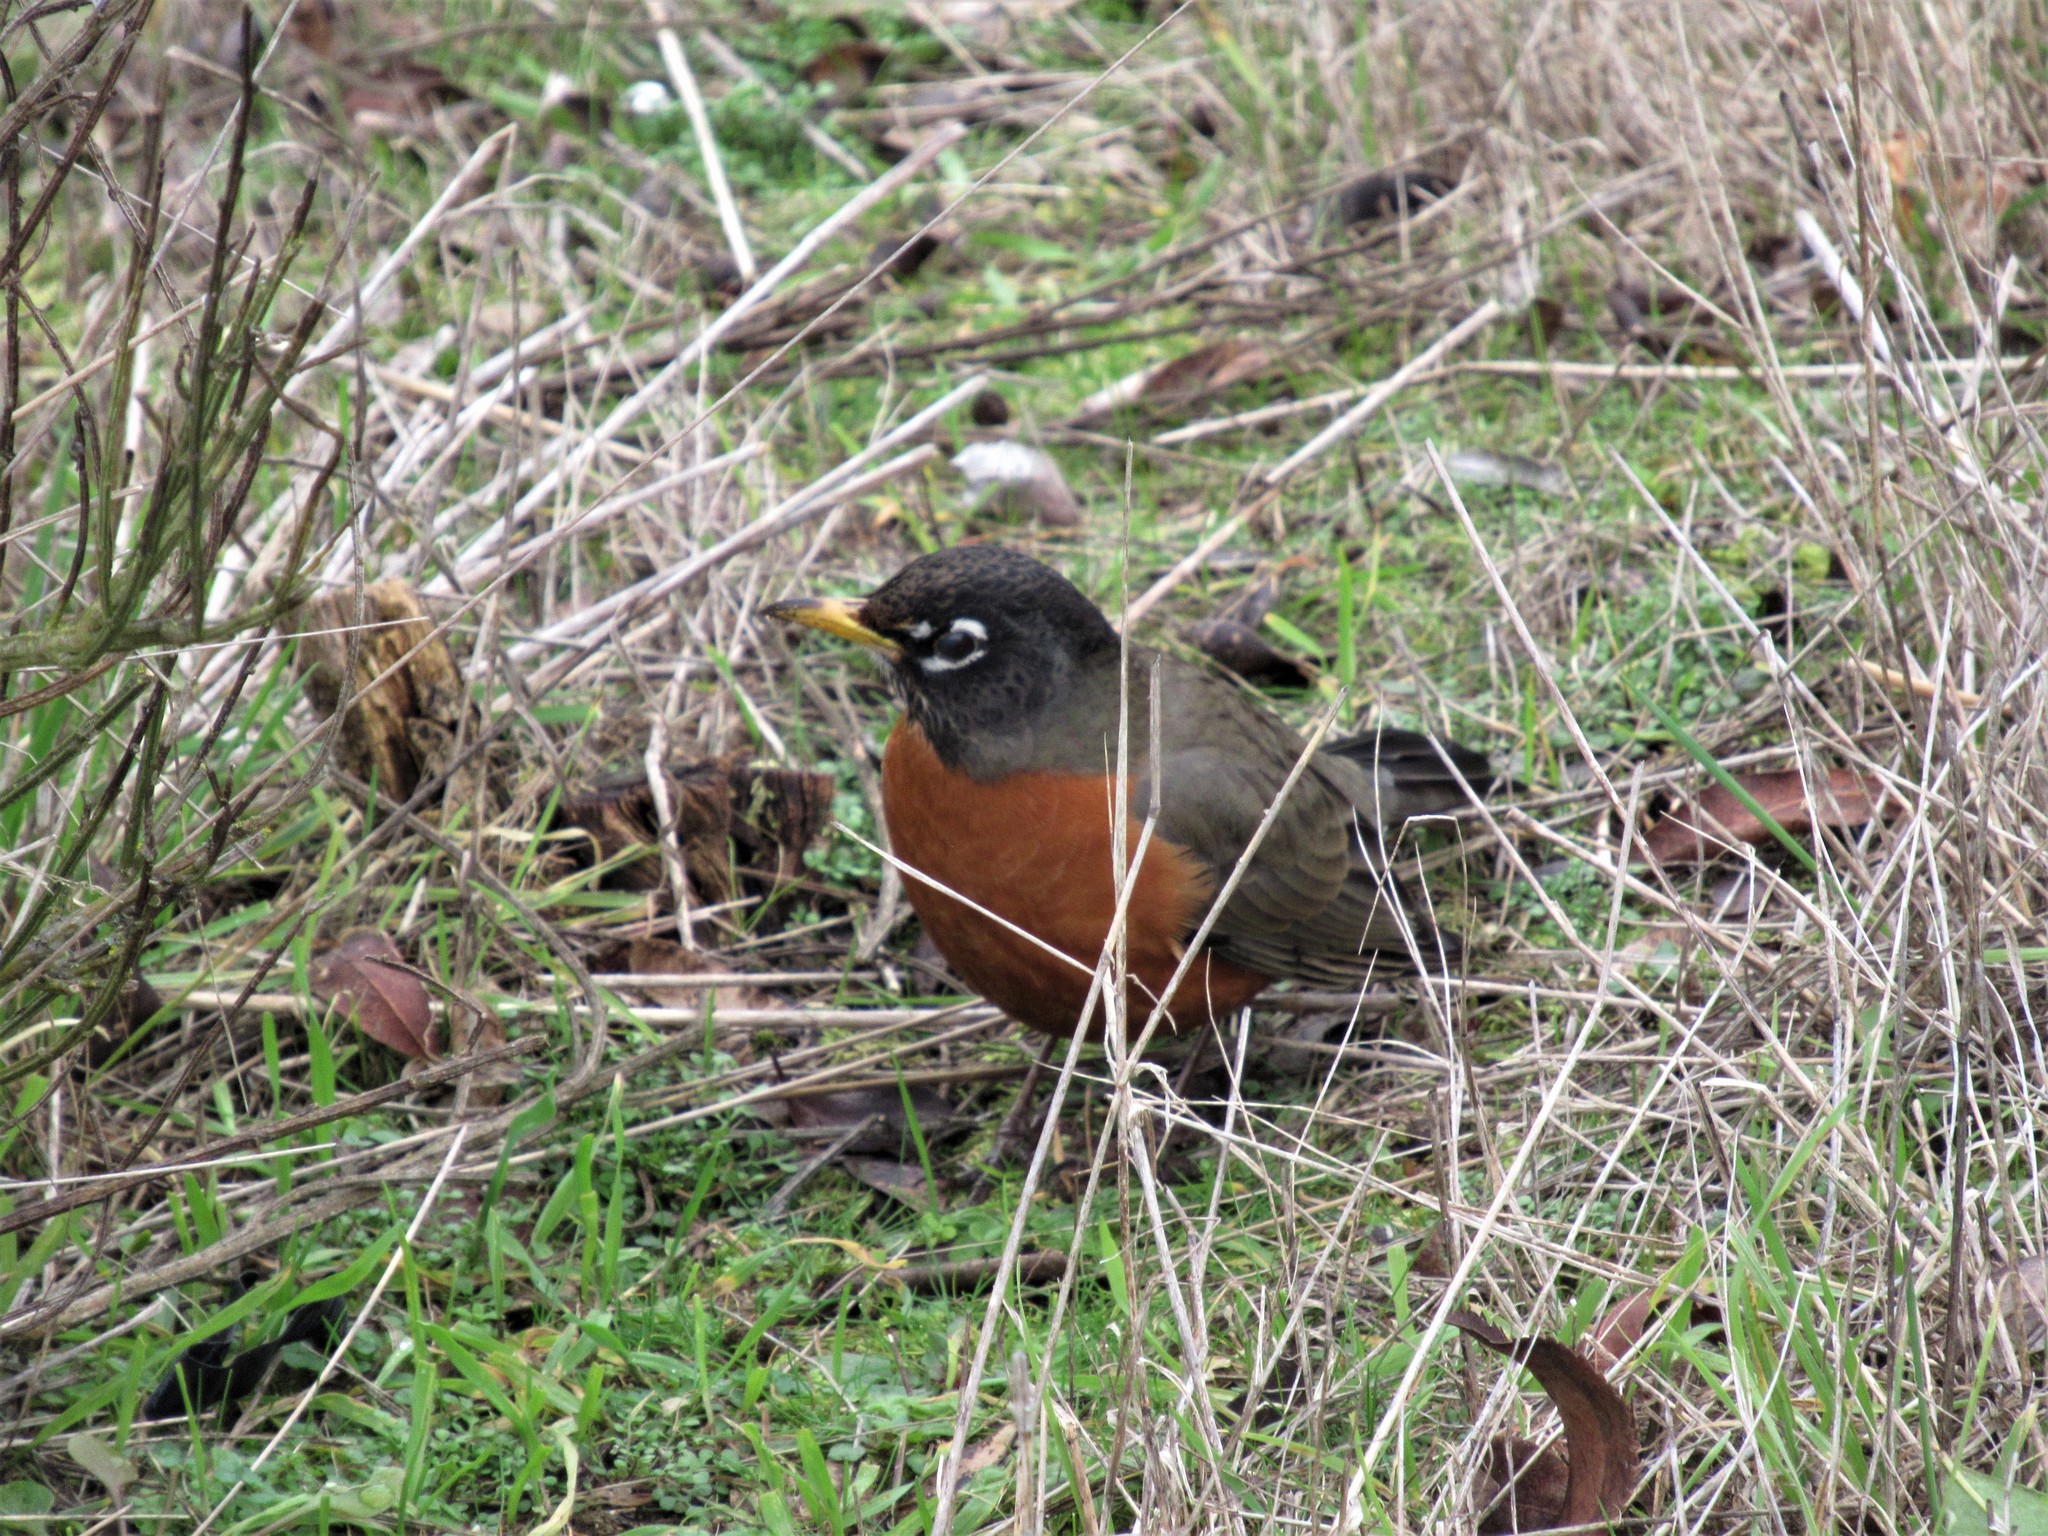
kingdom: Animalia
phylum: Chordata
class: Aves
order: Passeriformes
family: Turdidae
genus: Turdus
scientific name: Turdus migratorius
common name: American robin
